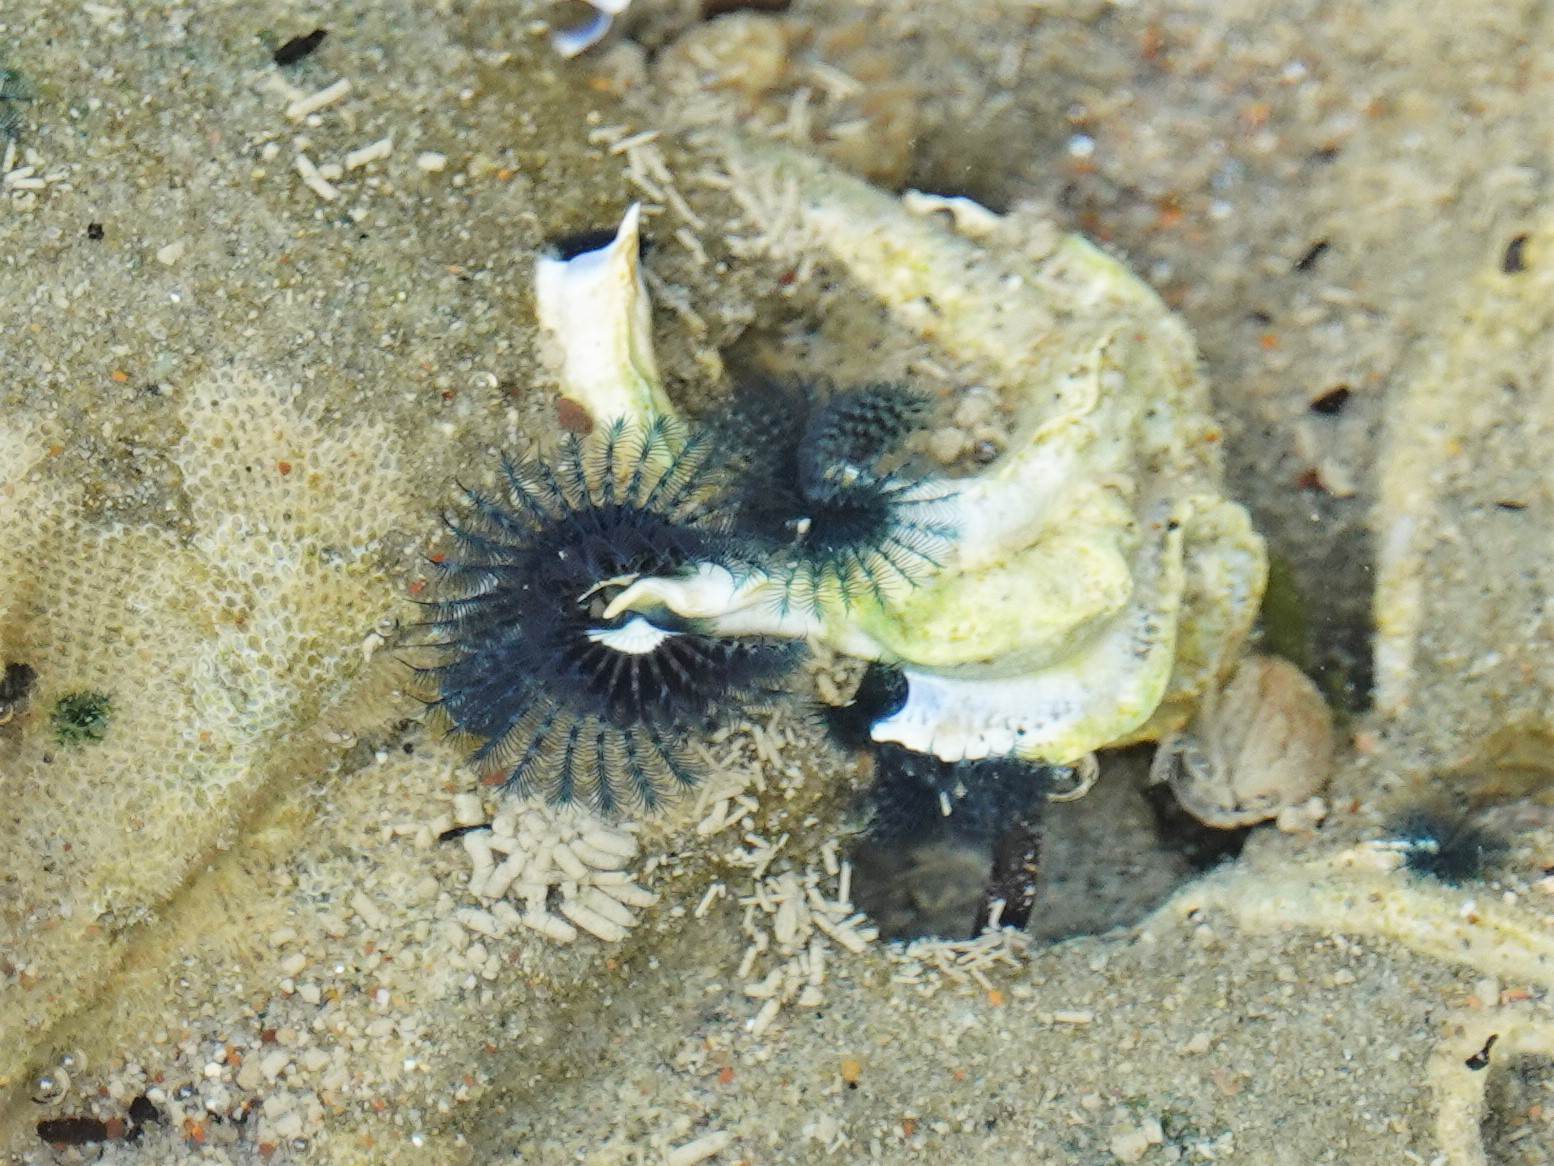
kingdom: Animalia
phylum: Annelida
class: Polychaeta
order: Sabellida
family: Serpulidae
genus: Spirobranchus
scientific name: Spirobranchus cariniferus
